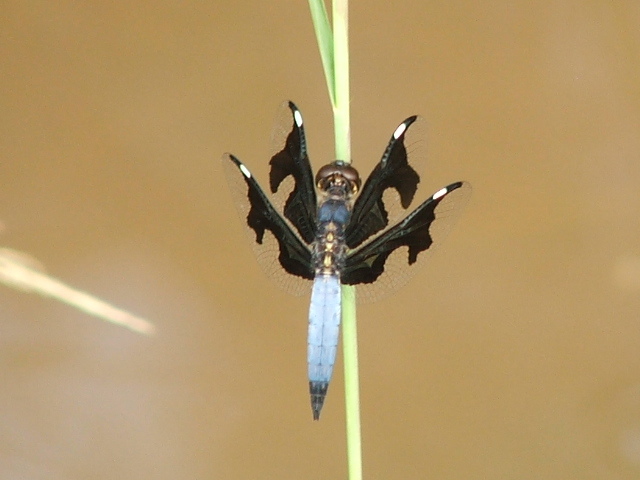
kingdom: Animalia
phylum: Arthropoda
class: Insecta
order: Odonata
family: Libellulidae
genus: Palpopleura
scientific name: Palpopleura portia
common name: Portia widow
